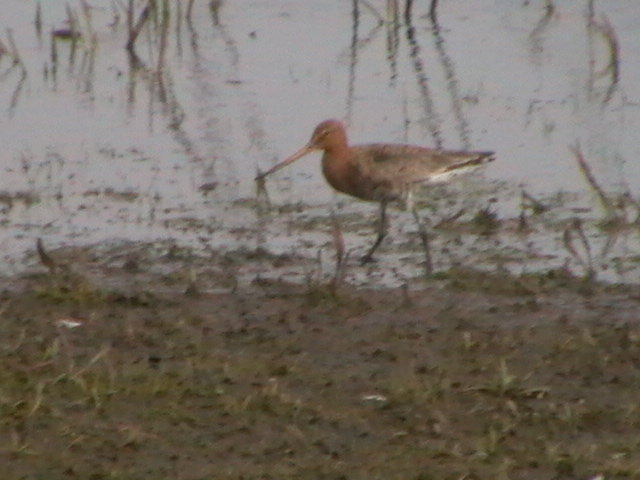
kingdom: Animalia
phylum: Chordata
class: Aves
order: Charadriiformes
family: Scolopacidae
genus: Limosa
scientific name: Limosa limosa
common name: Black-tailed godwit
